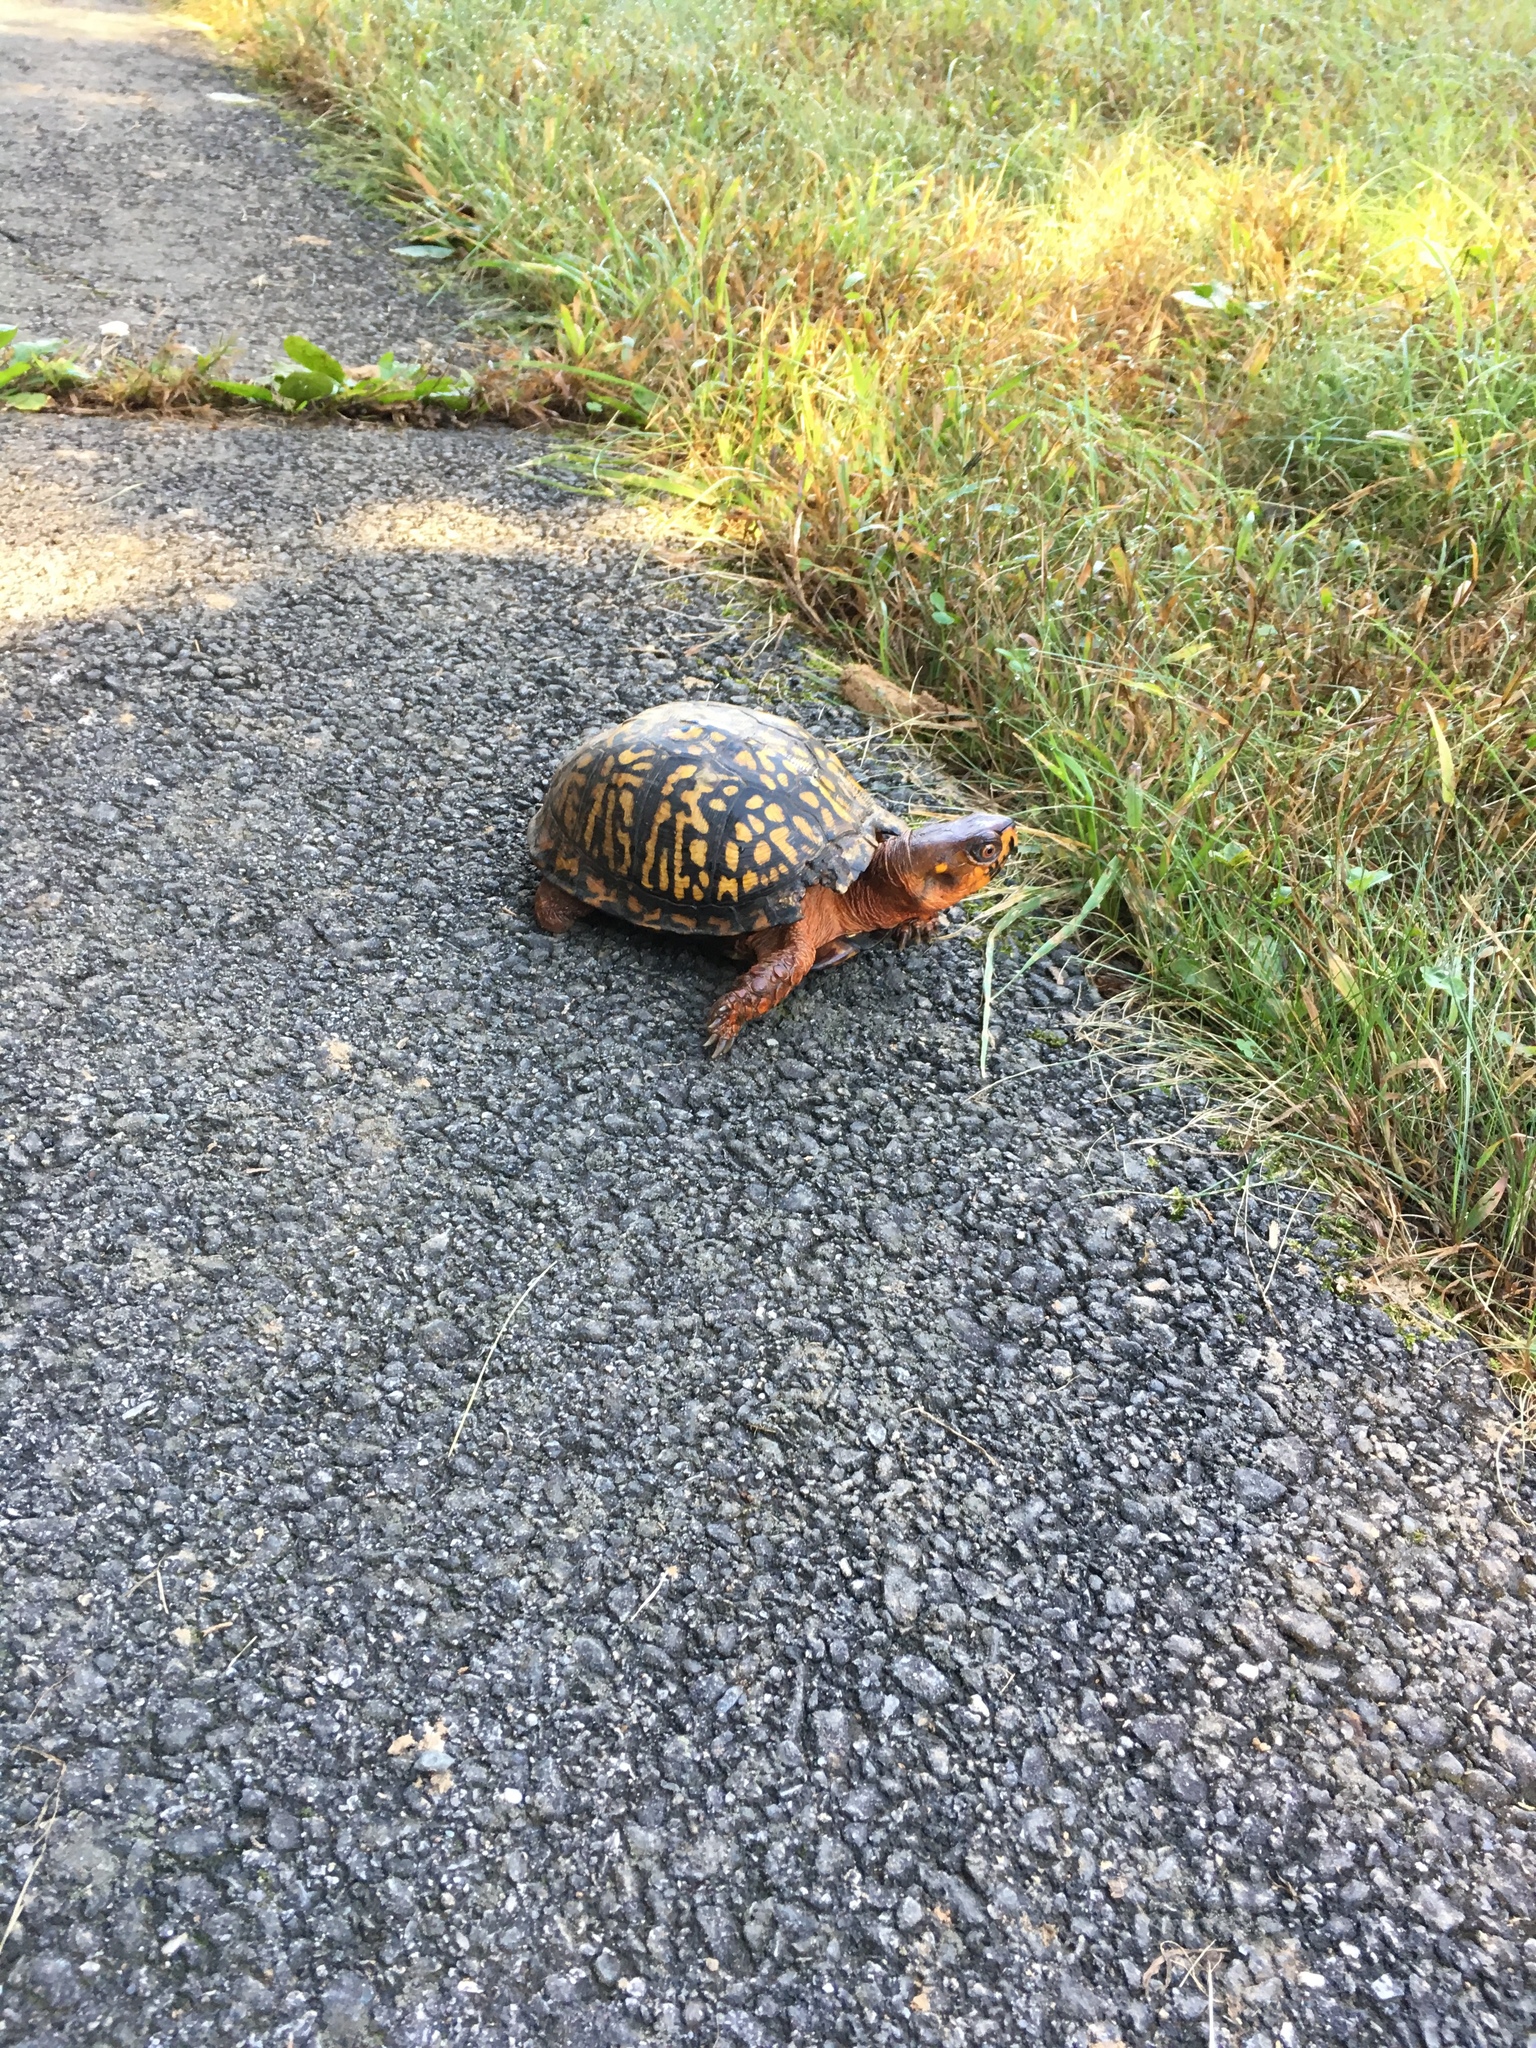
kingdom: Animalia
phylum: Chordata
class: Testudines
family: Emydidae
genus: Terrapene
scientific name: Terrapene carolina
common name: Common box turtle
